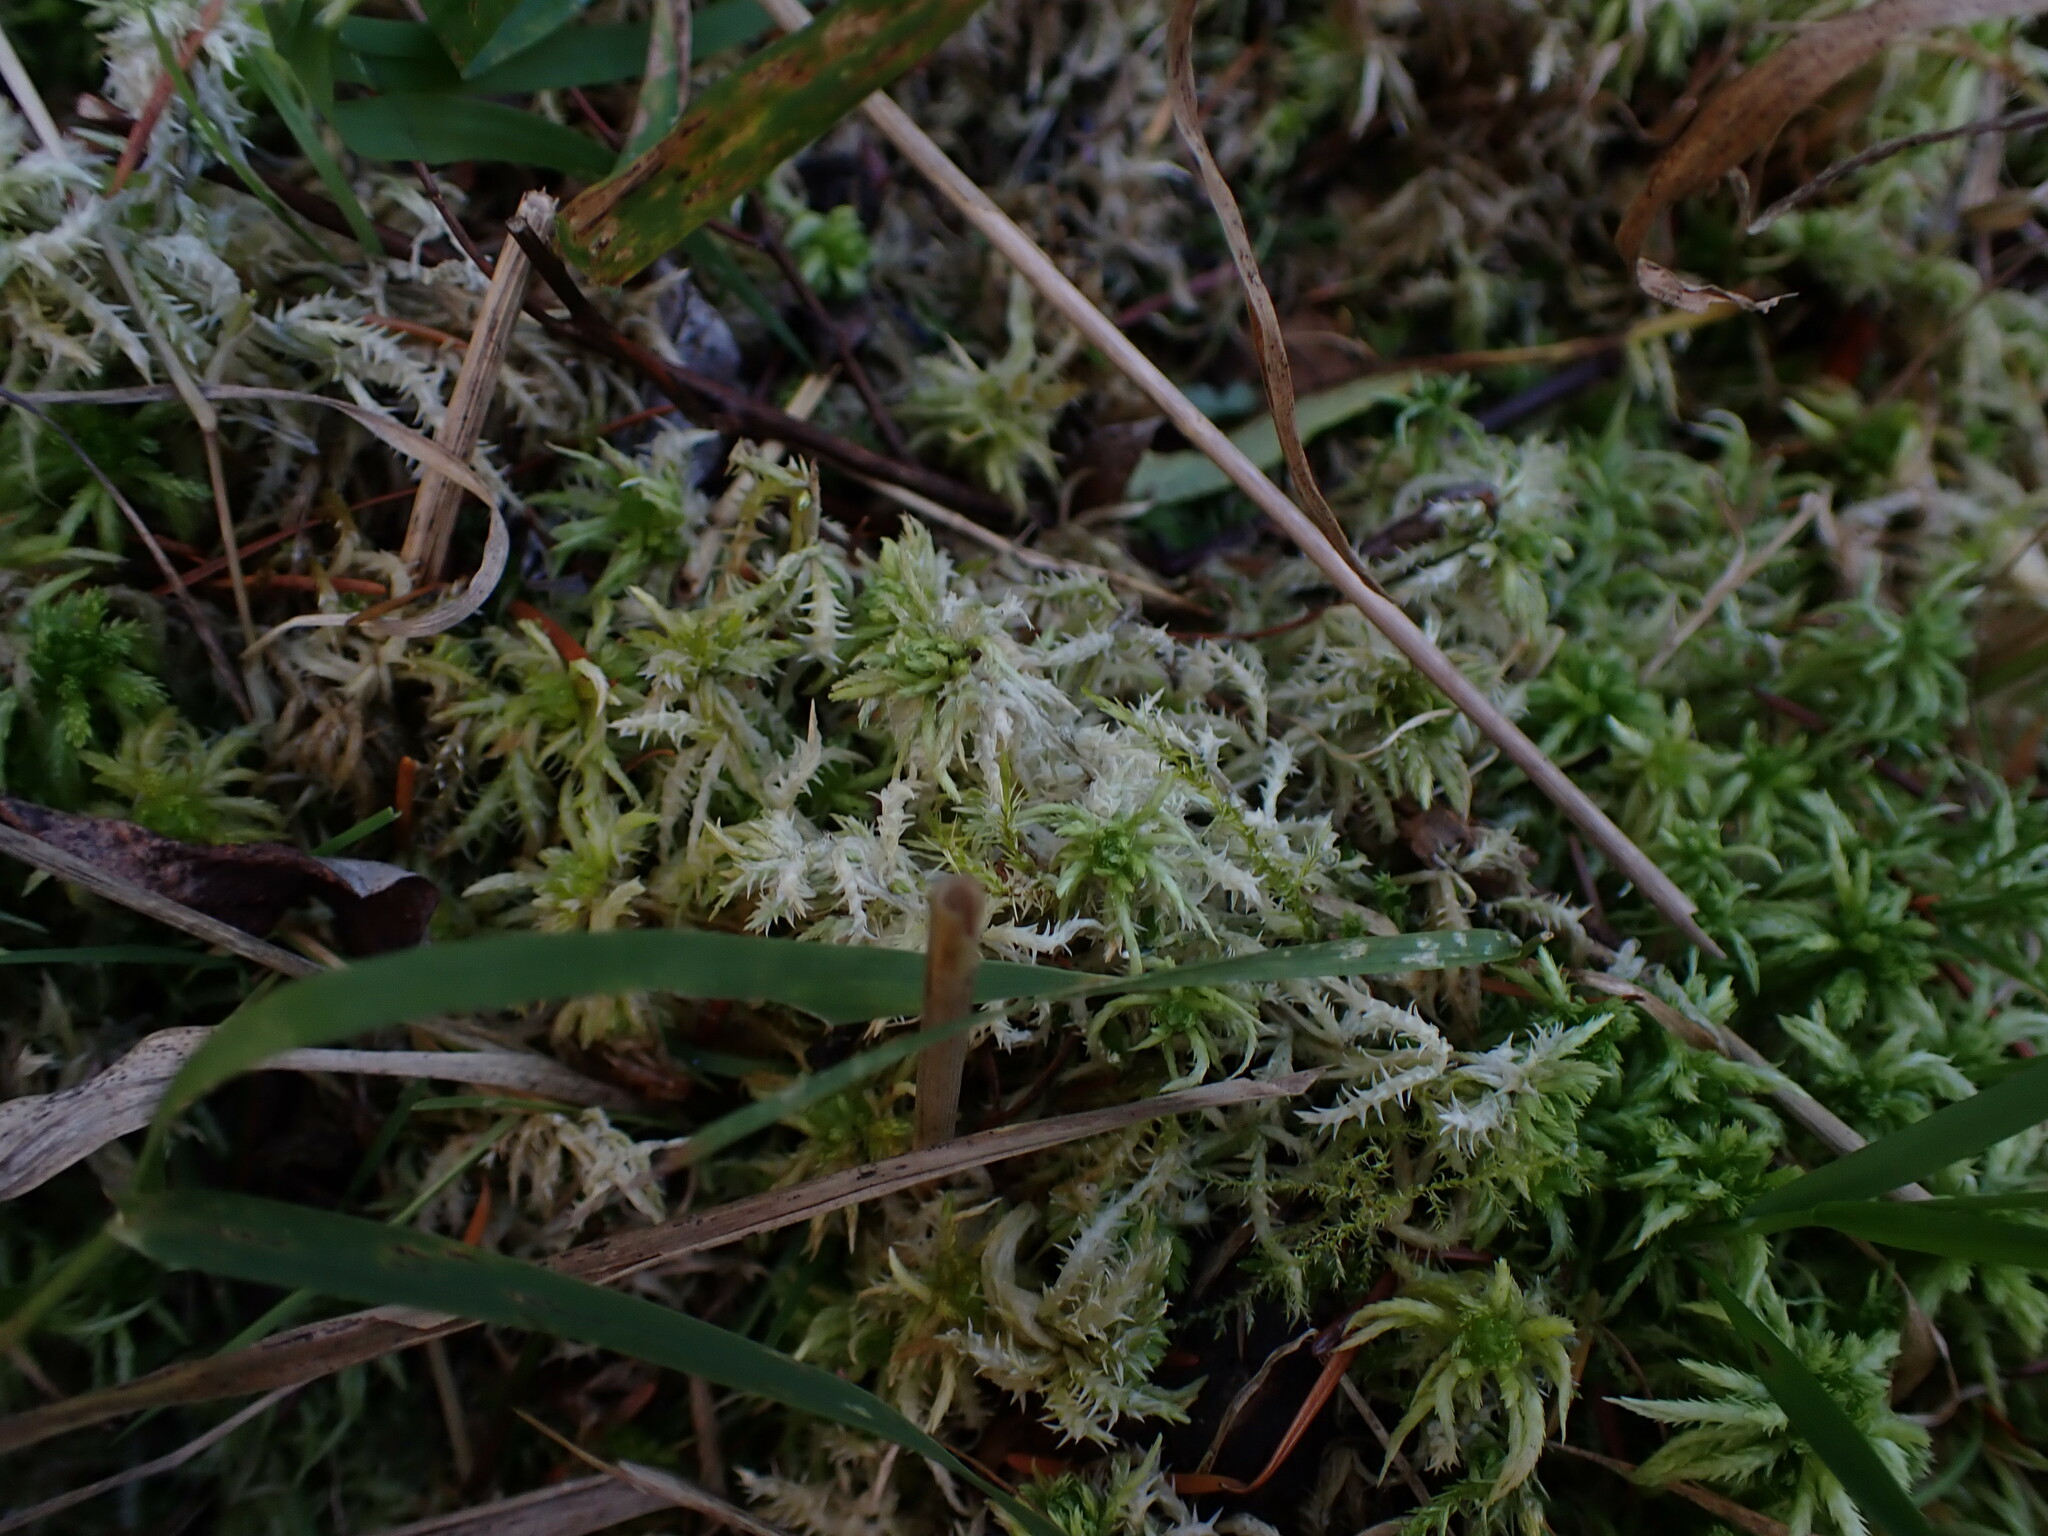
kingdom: Plantae
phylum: Bryophyta
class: Sphagnopsida
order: Sphagnales
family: Sphagnaceae
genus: Sphagnum
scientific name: Sphagnum squarrosum
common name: Shaggy peat moss
